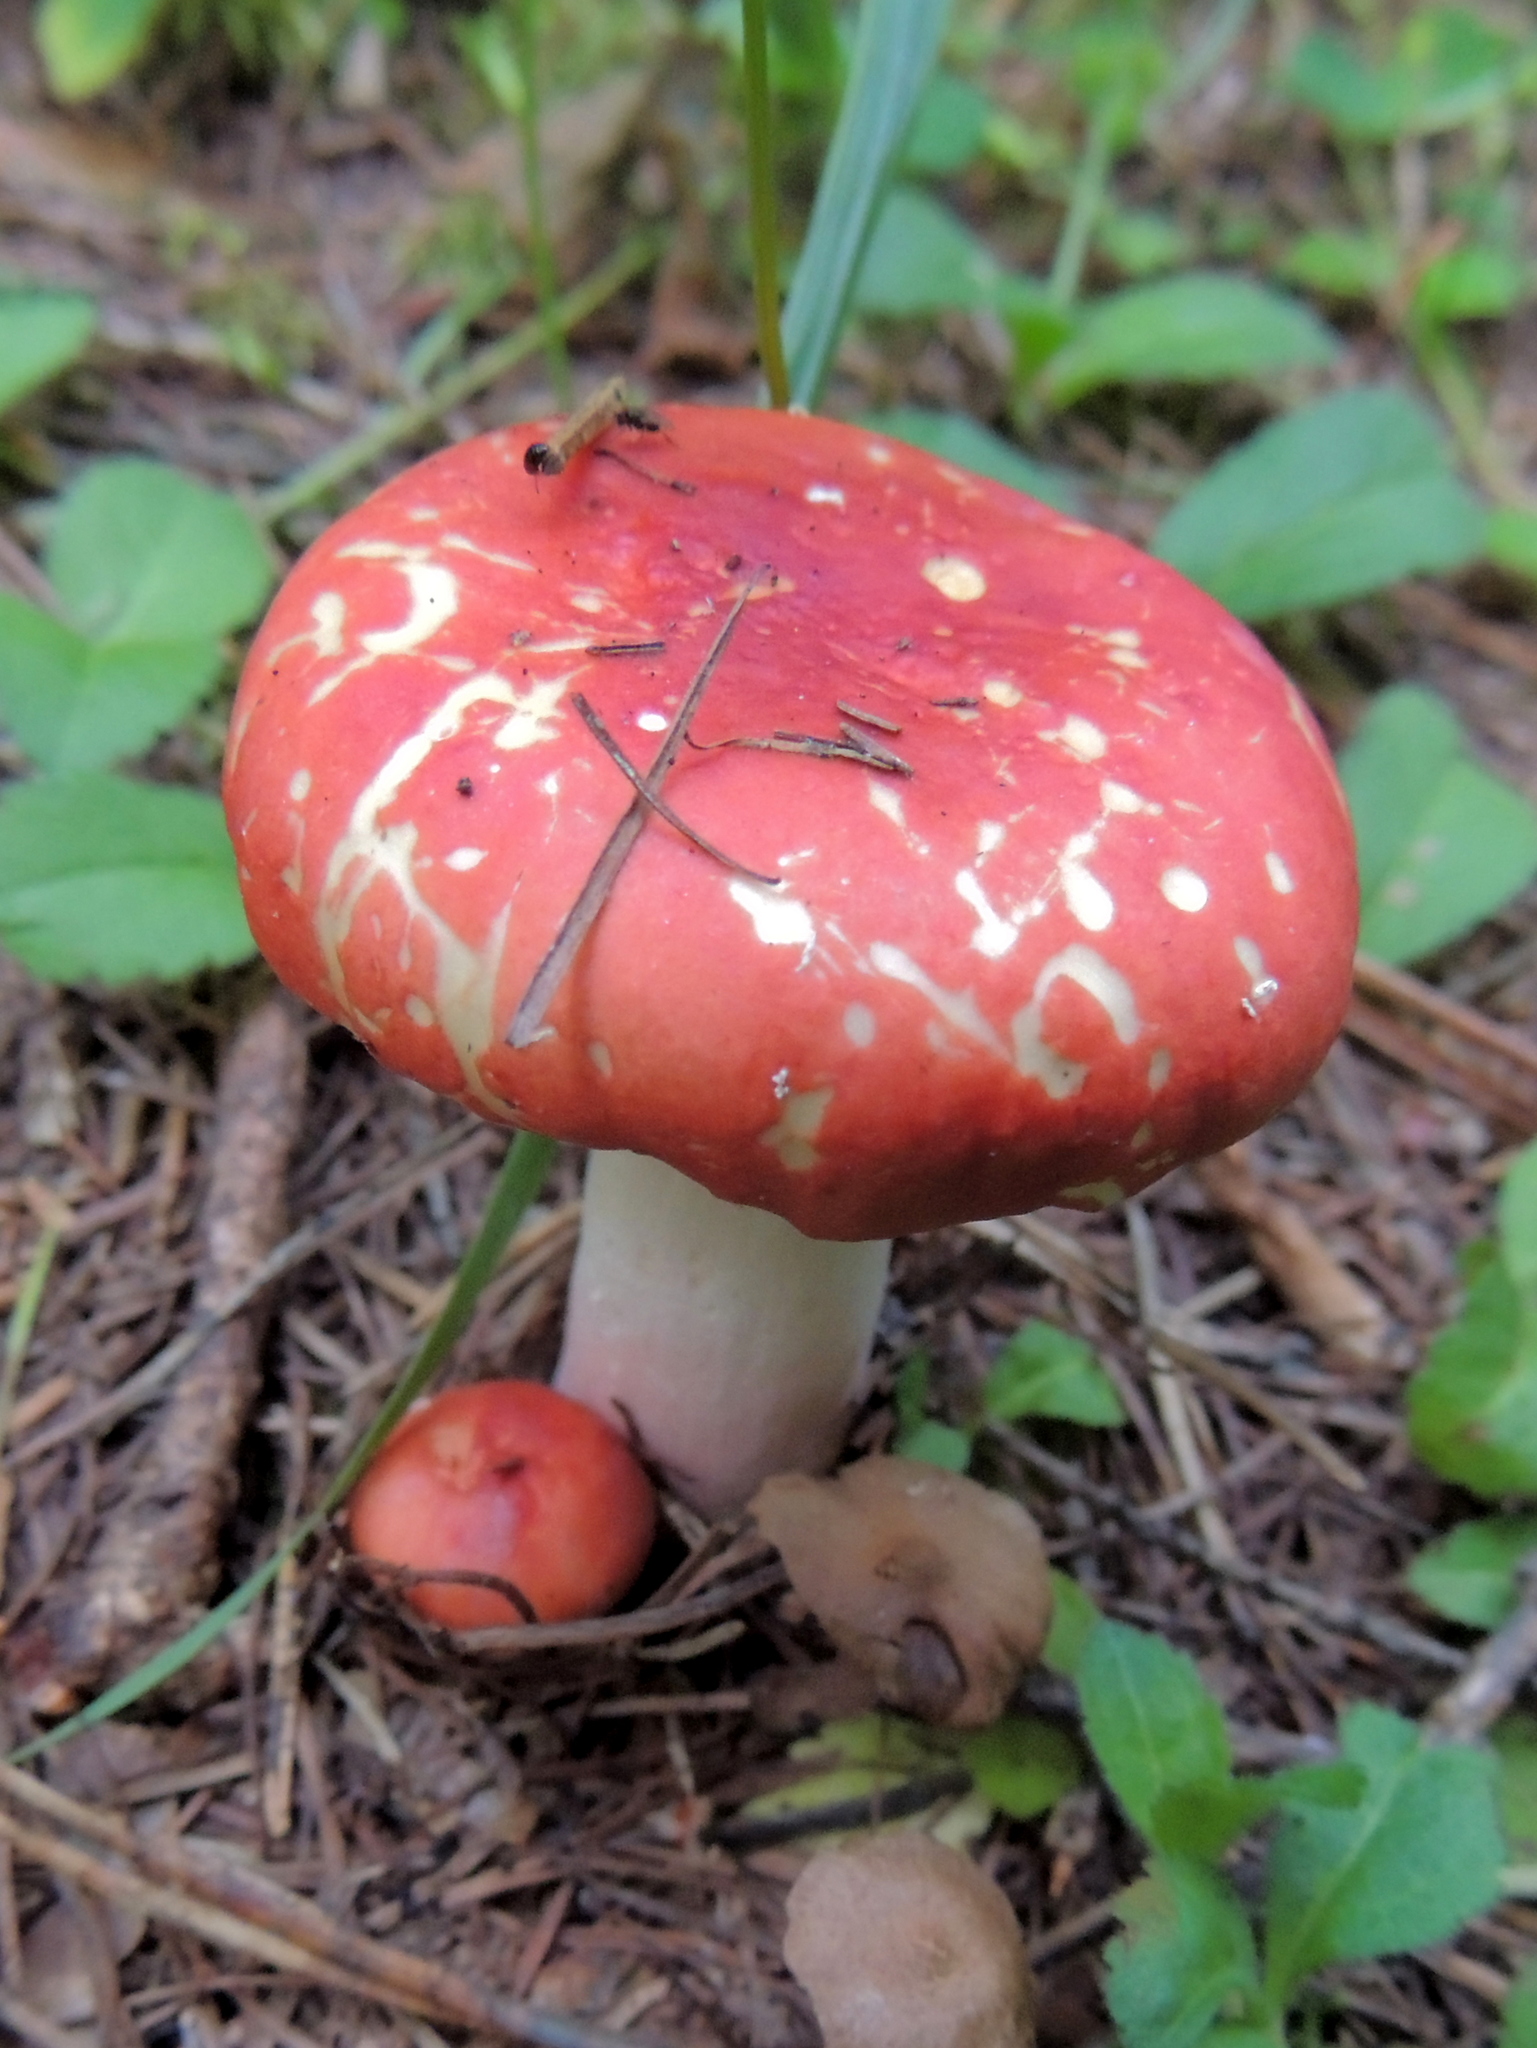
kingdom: Fungi
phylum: Basidiomycota
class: Agaricomycetes
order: Russulales
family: Russulaceae
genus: Russula
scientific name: Russula
